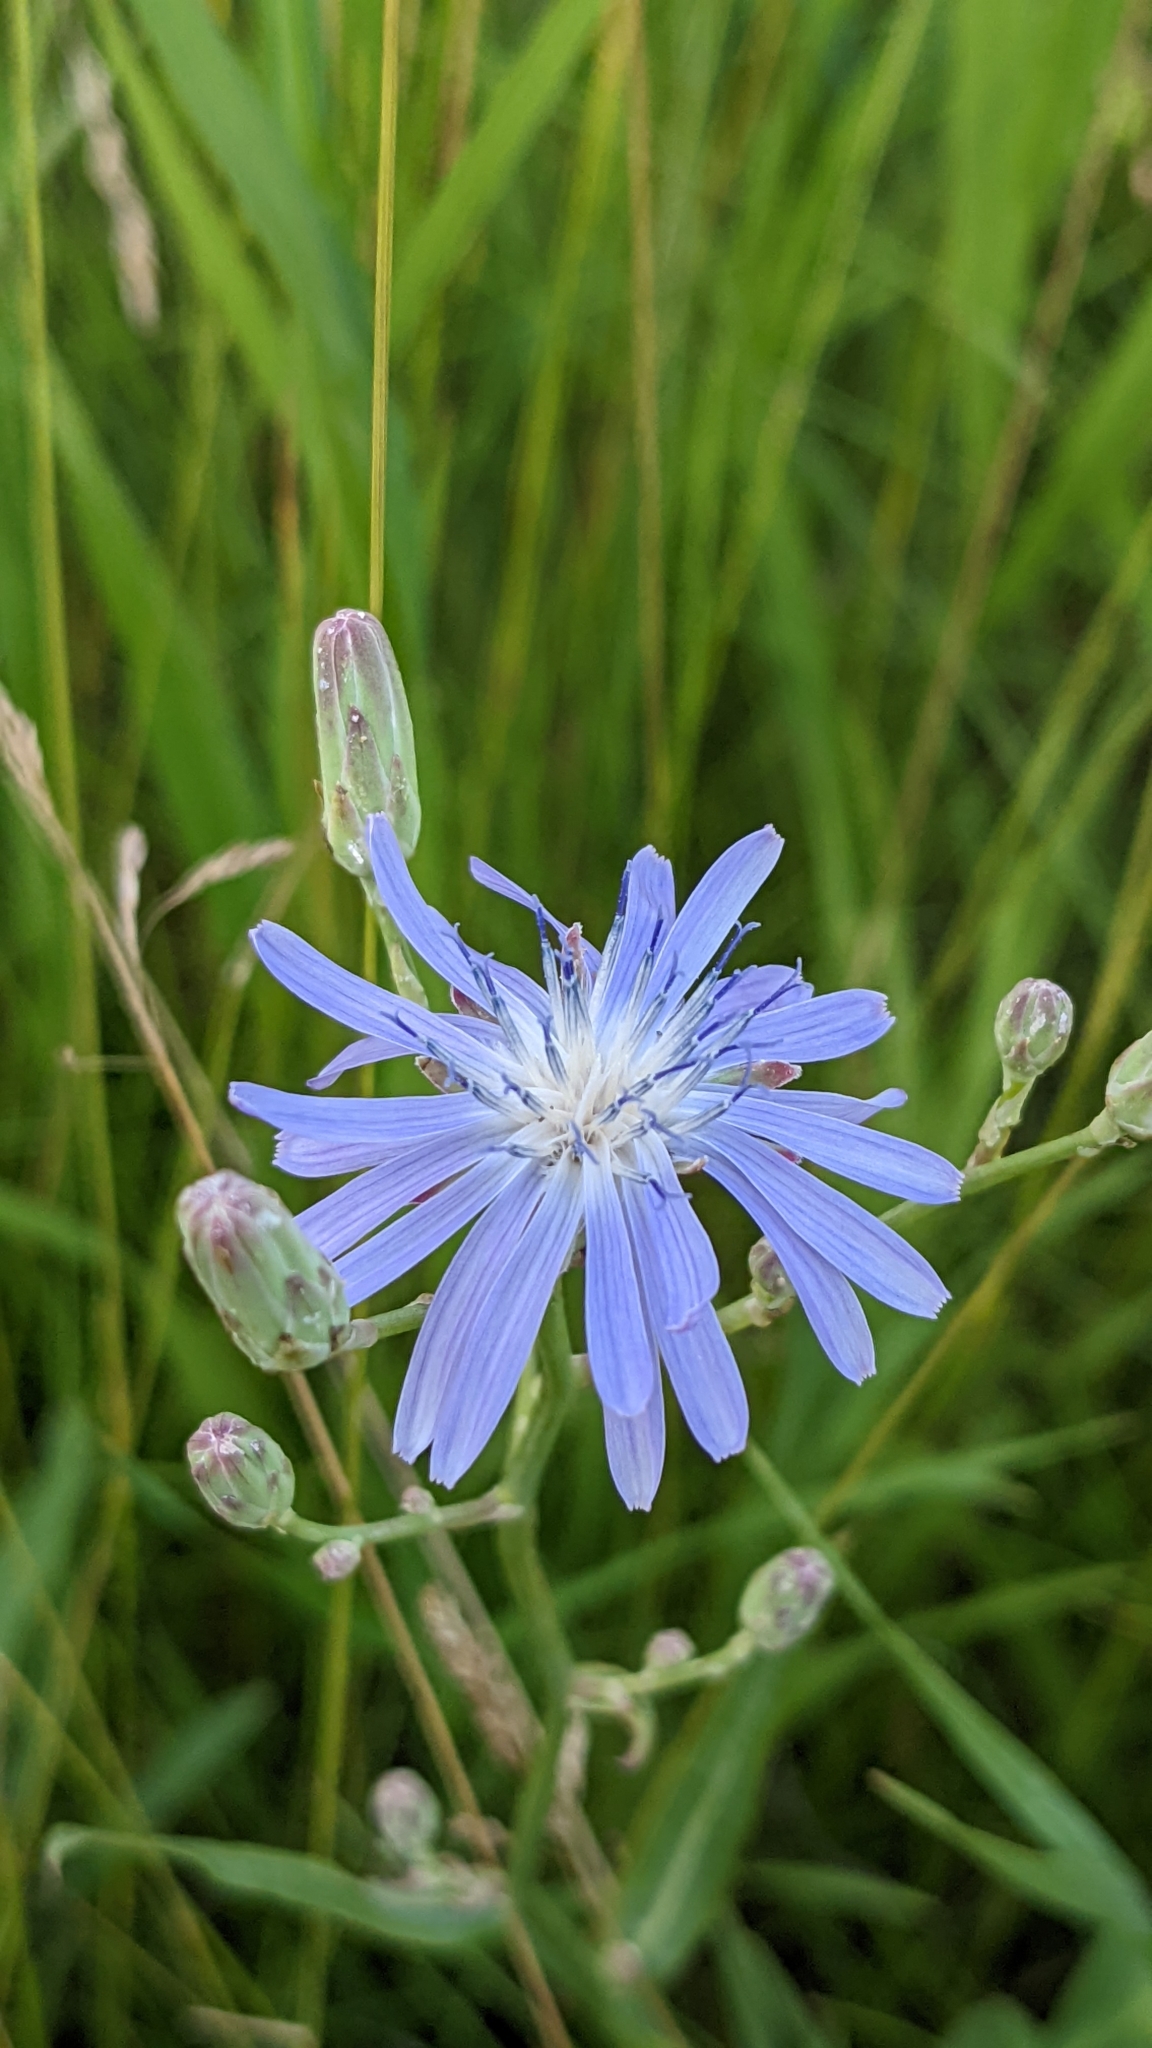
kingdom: Plantae
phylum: Tracheophyta
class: Magnoliopsida
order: Asterales
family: Asteraceae
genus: Lactuca
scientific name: Lactuca tatarica
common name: Blue lettuce
